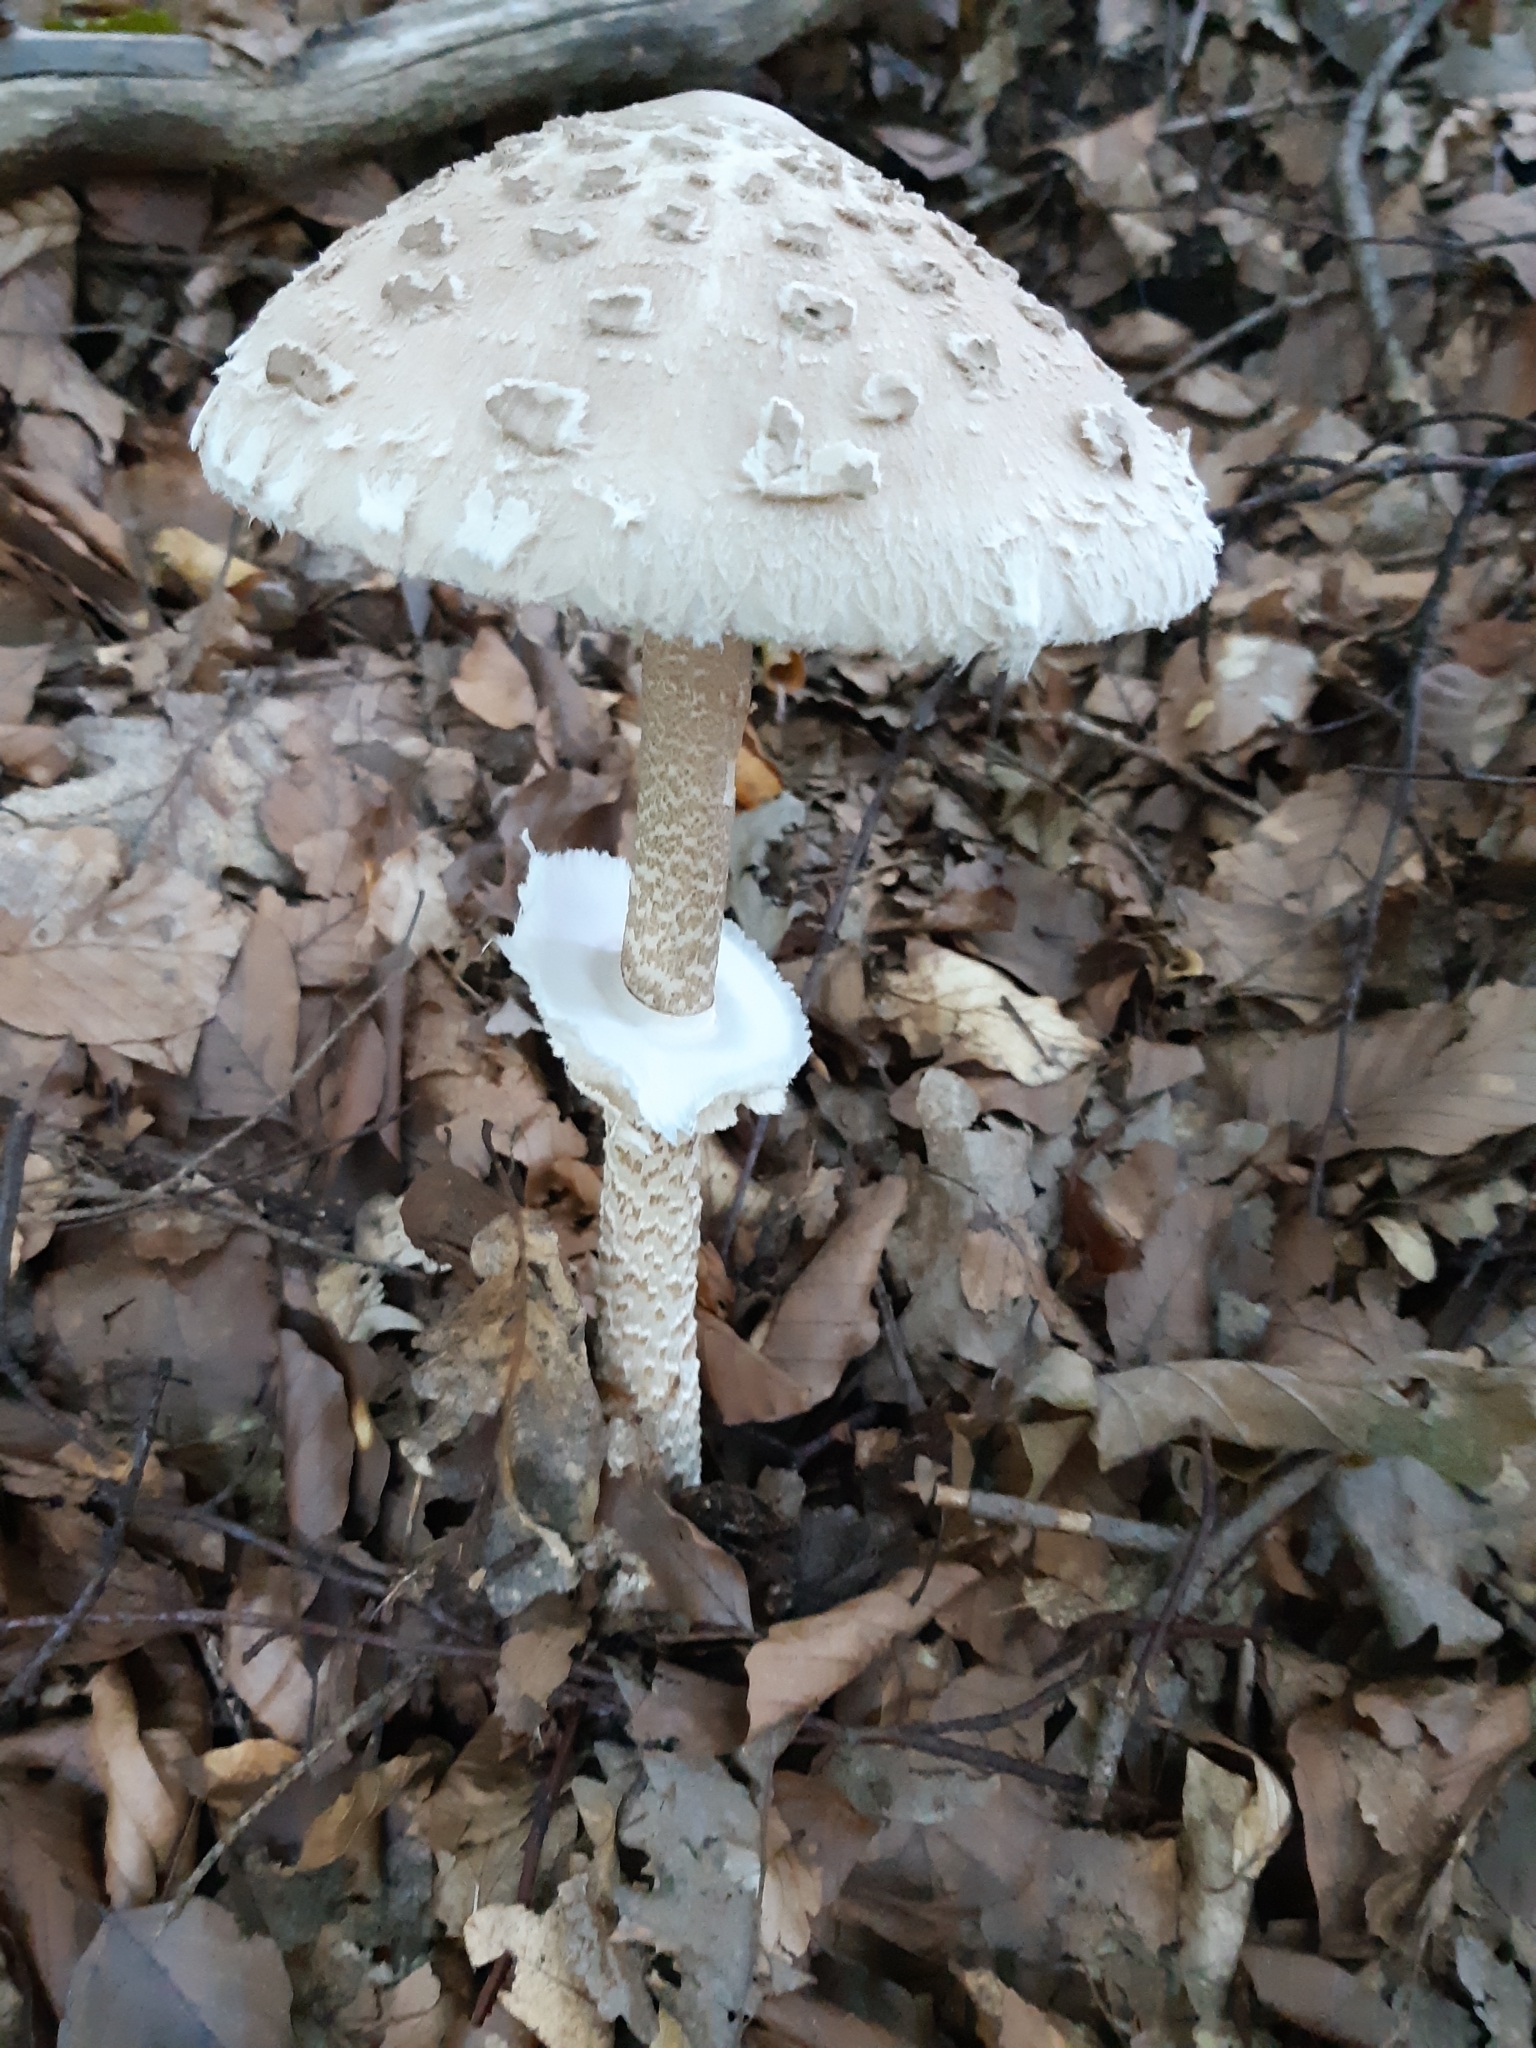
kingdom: Fungi
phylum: Basidiomycota
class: Agaricomycetes
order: Agaricales
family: Agaricaceae
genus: Macrolepiota
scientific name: Macrolepiota procera
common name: Parasol
